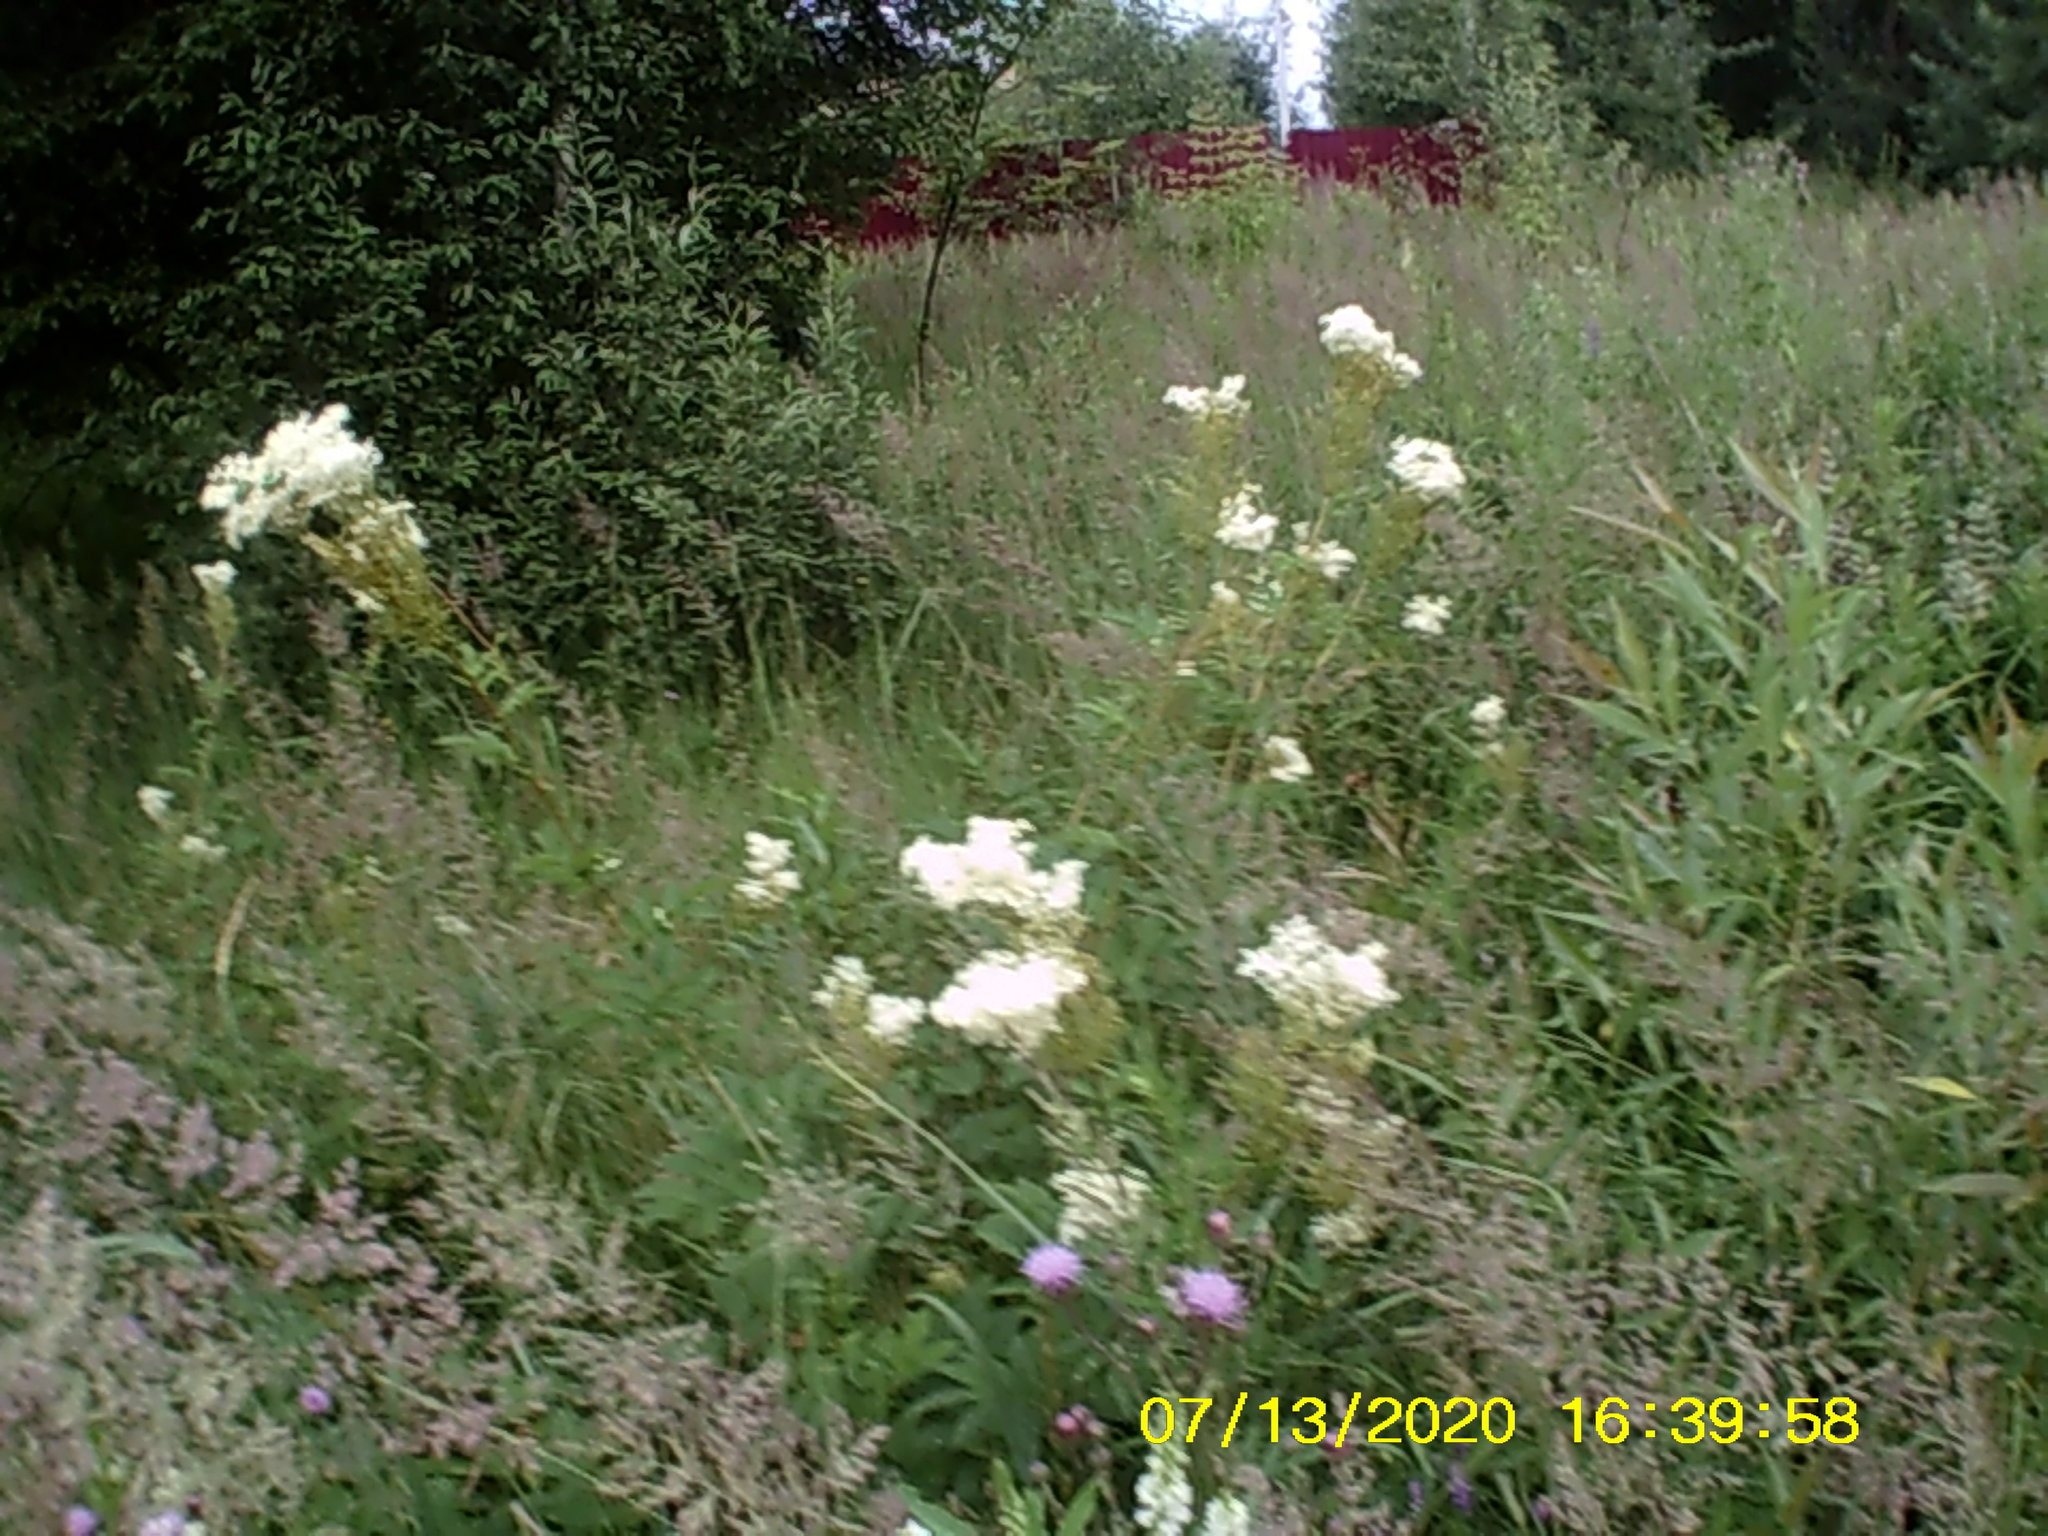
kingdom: Plantae
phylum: Tracheophyta
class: Magnoliopsida
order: Rosales
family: Rosaceae
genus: Filipendula
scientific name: Filipendula ulmaria
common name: Meadowsweet
